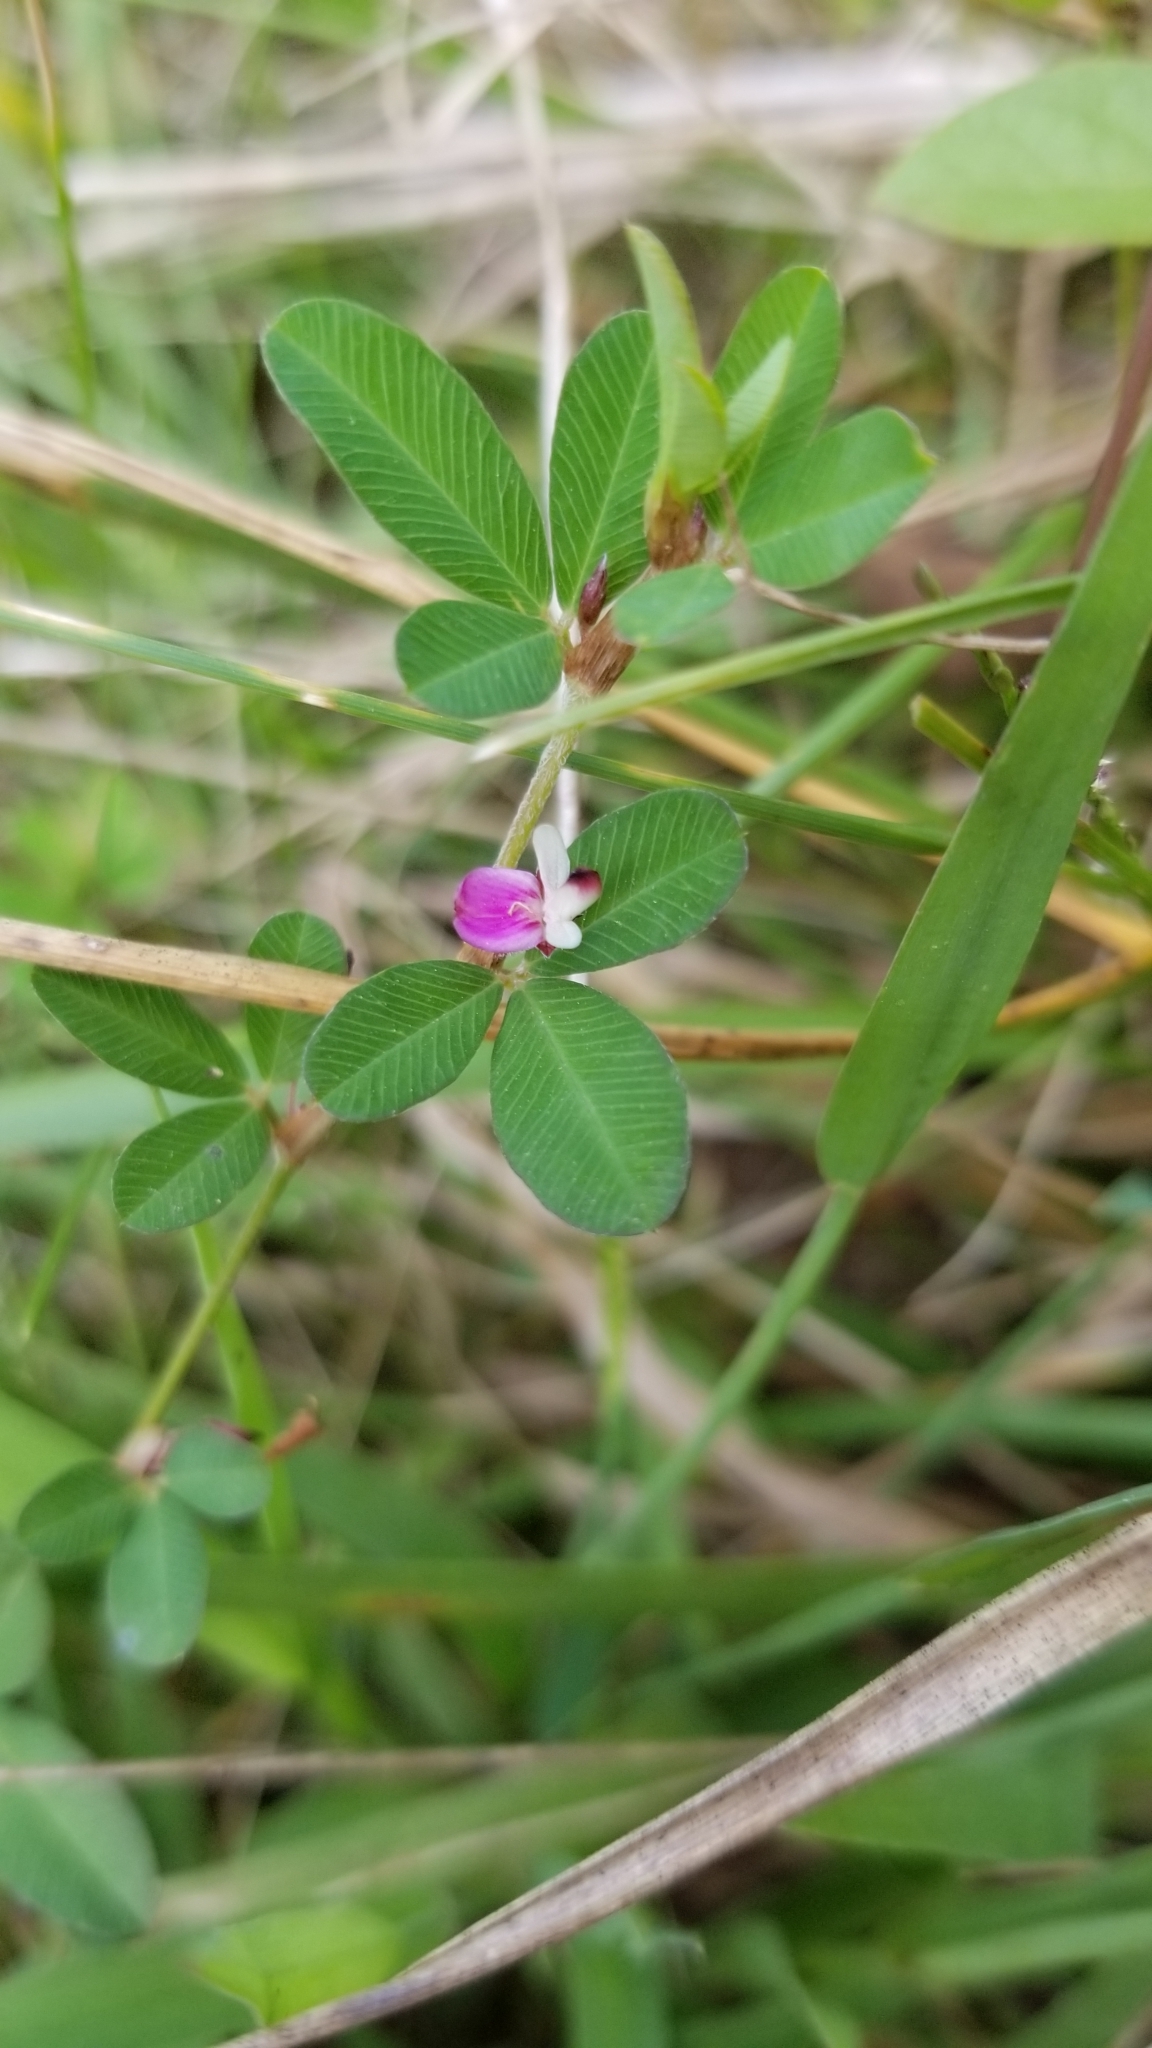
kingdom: Plantae
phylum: Tracheophyta
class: Magnoliopsida
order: Fabales
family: Fabaceae
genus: Kummerowia
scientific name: Kummerowia striata
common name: Japanese clover
